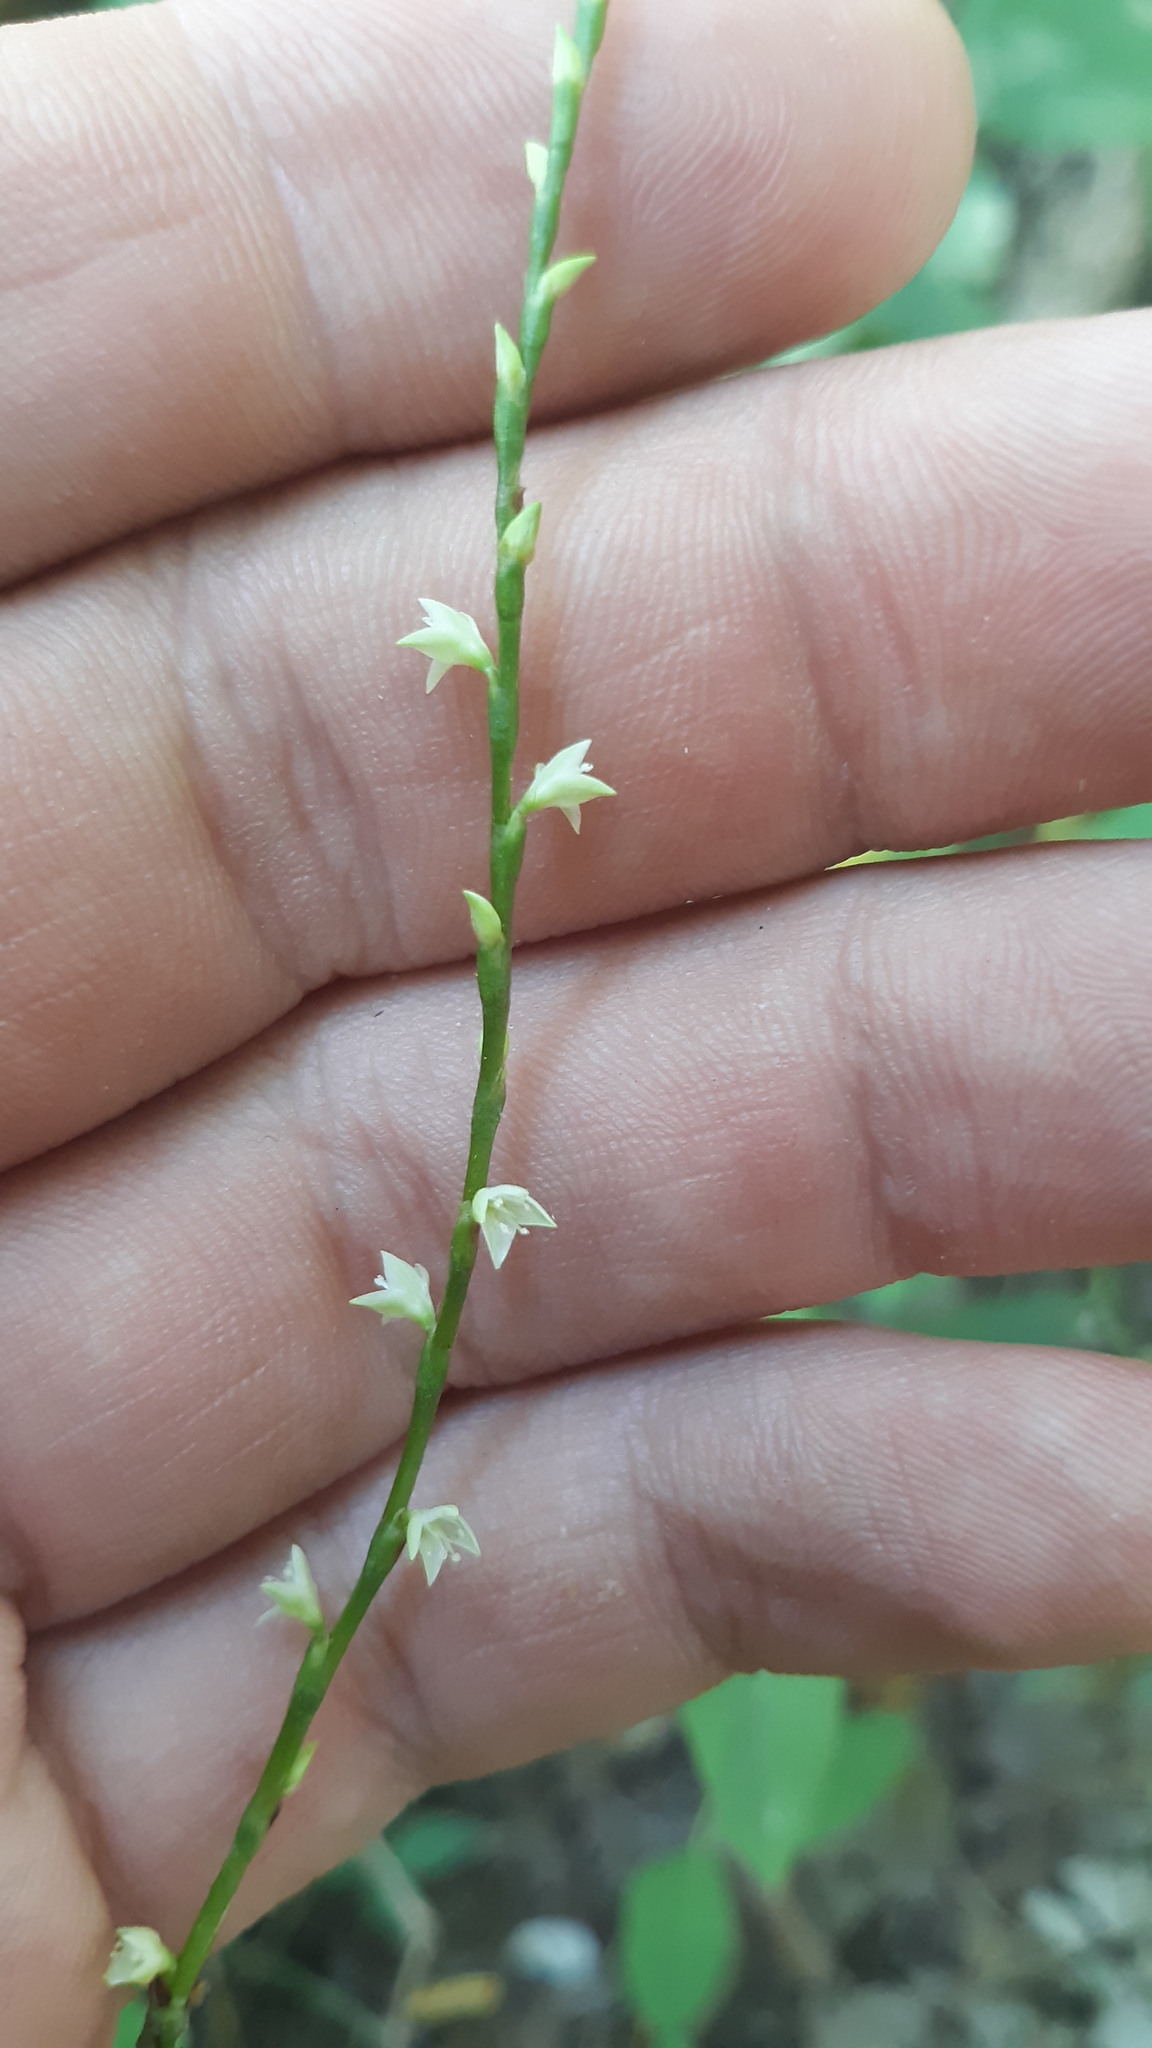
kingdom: Plantae
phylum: Tracheophyta
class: Magnoliopsida
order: Caryophyllales
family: Polygonaceae
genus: Persicaria
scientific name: Persicaria virginiana
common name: Jumpseed
